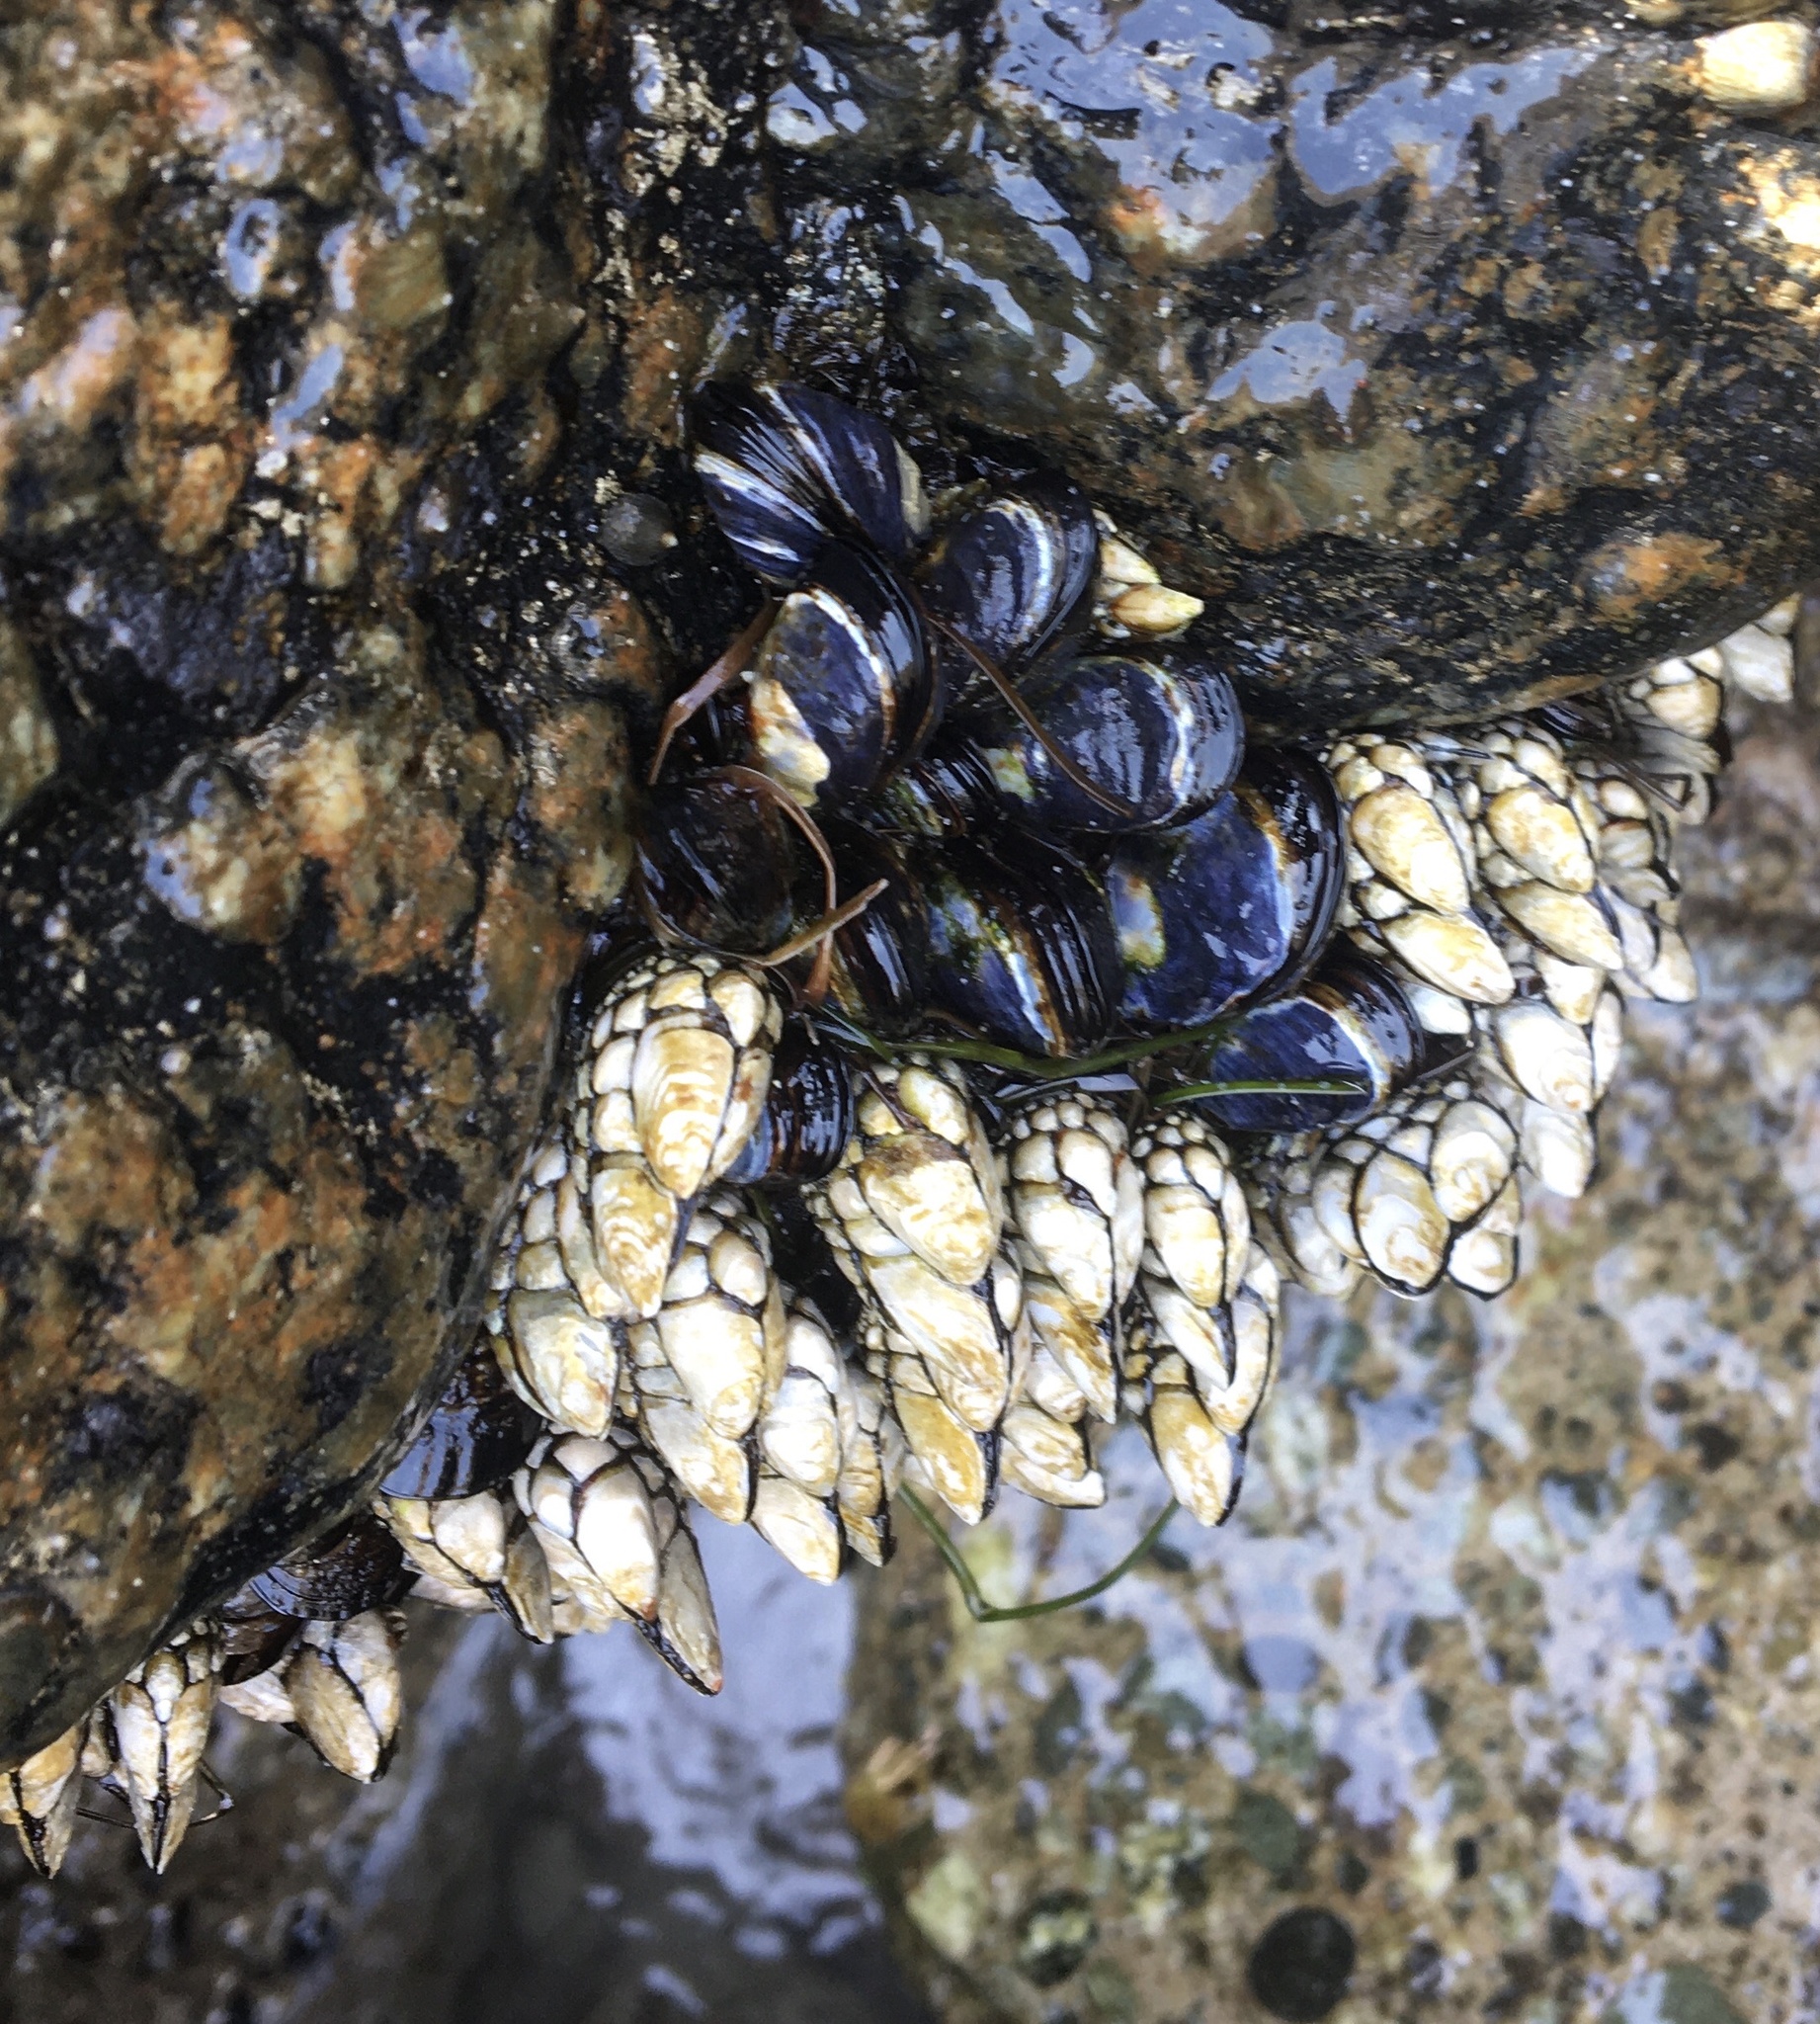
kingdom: Animalia
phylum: Arthropoda
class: Maxillopoda
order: Pedunculata
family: Pollicipedidae
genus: Pollicipes
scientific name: Pollicipes polymerus
